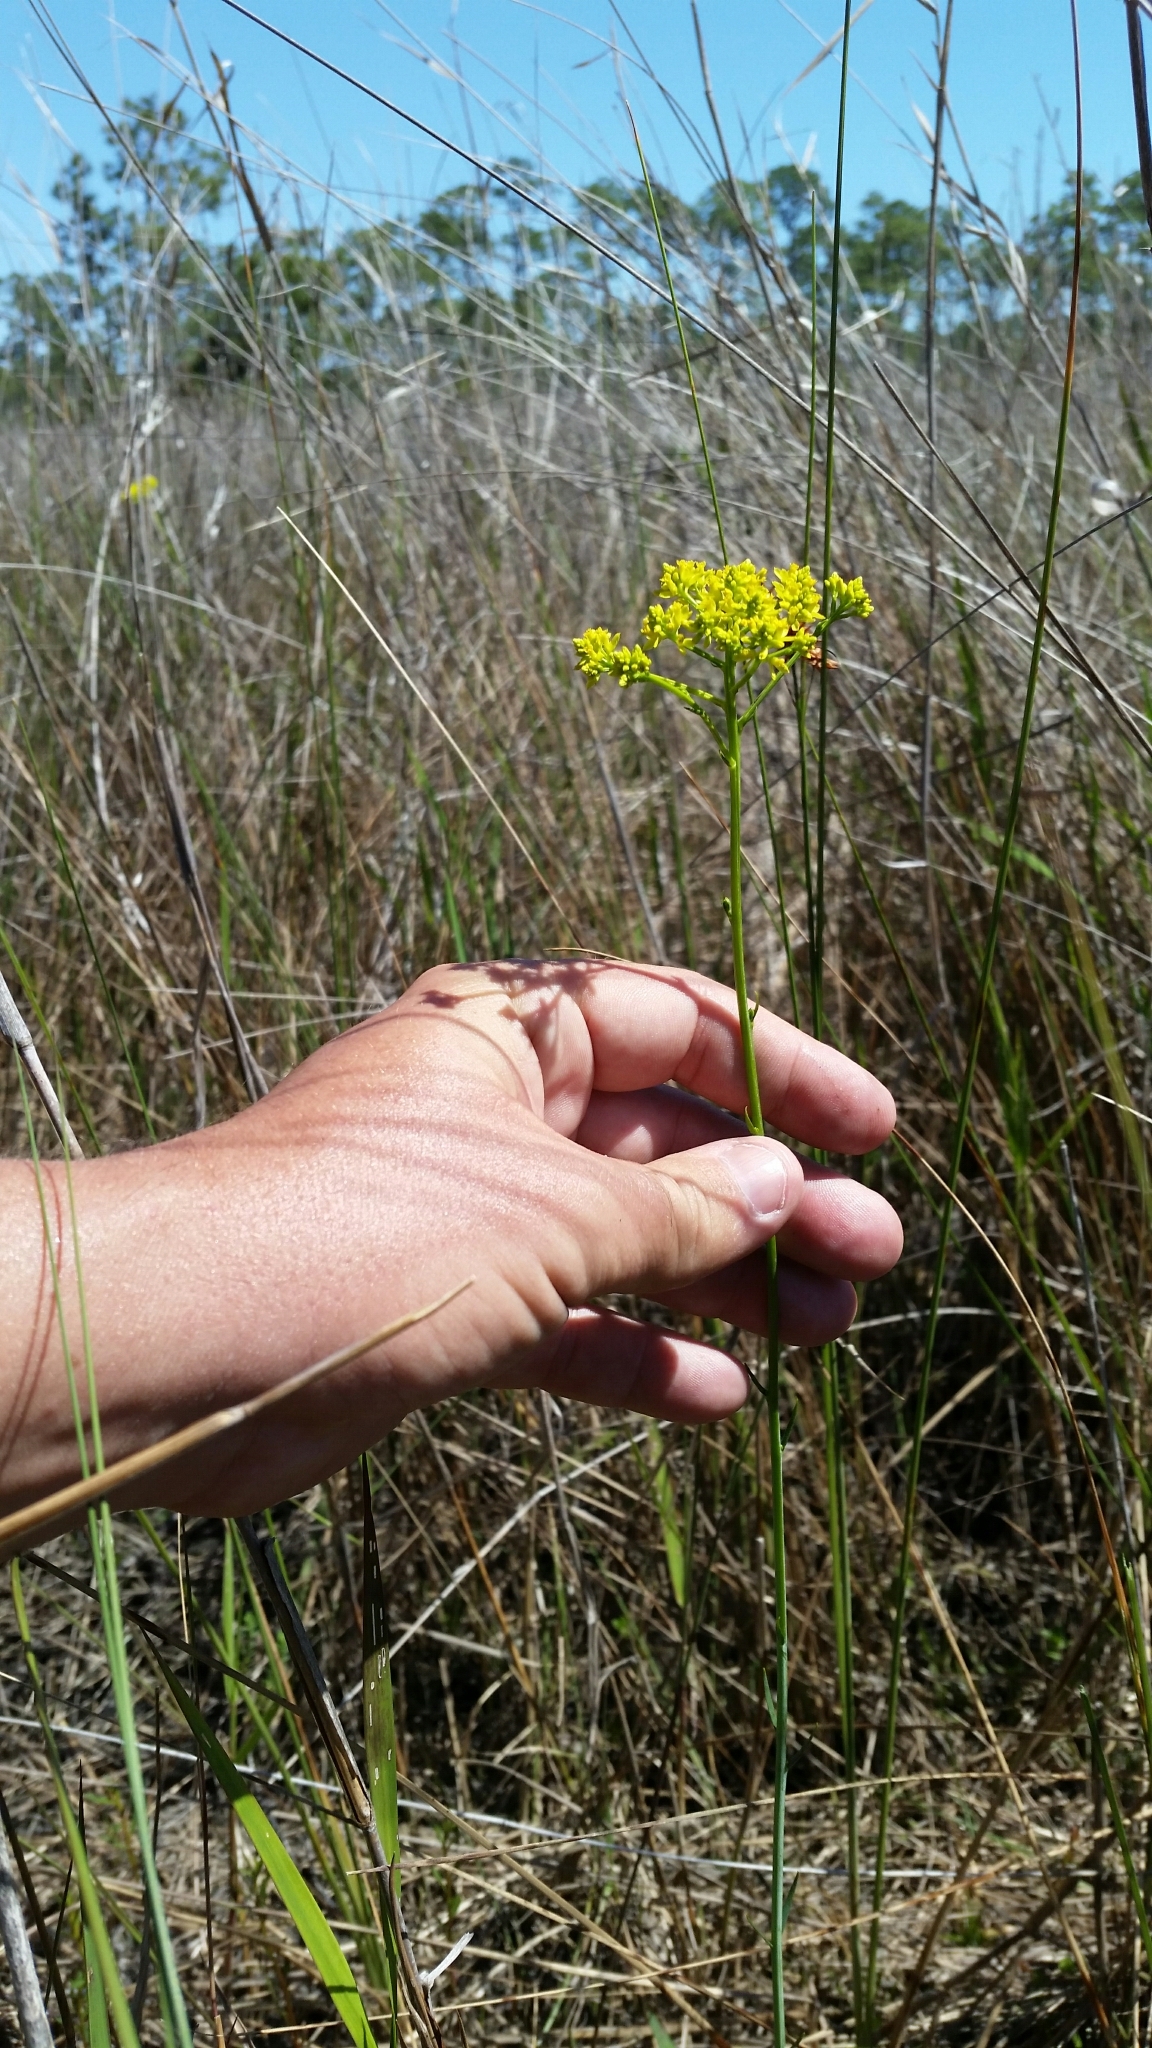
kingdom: Plantae
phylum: Tracheophyta
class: Magnoliopsida
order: Fabales
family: Polygalaceae
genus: Polygala
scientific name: Polygala cymosa
